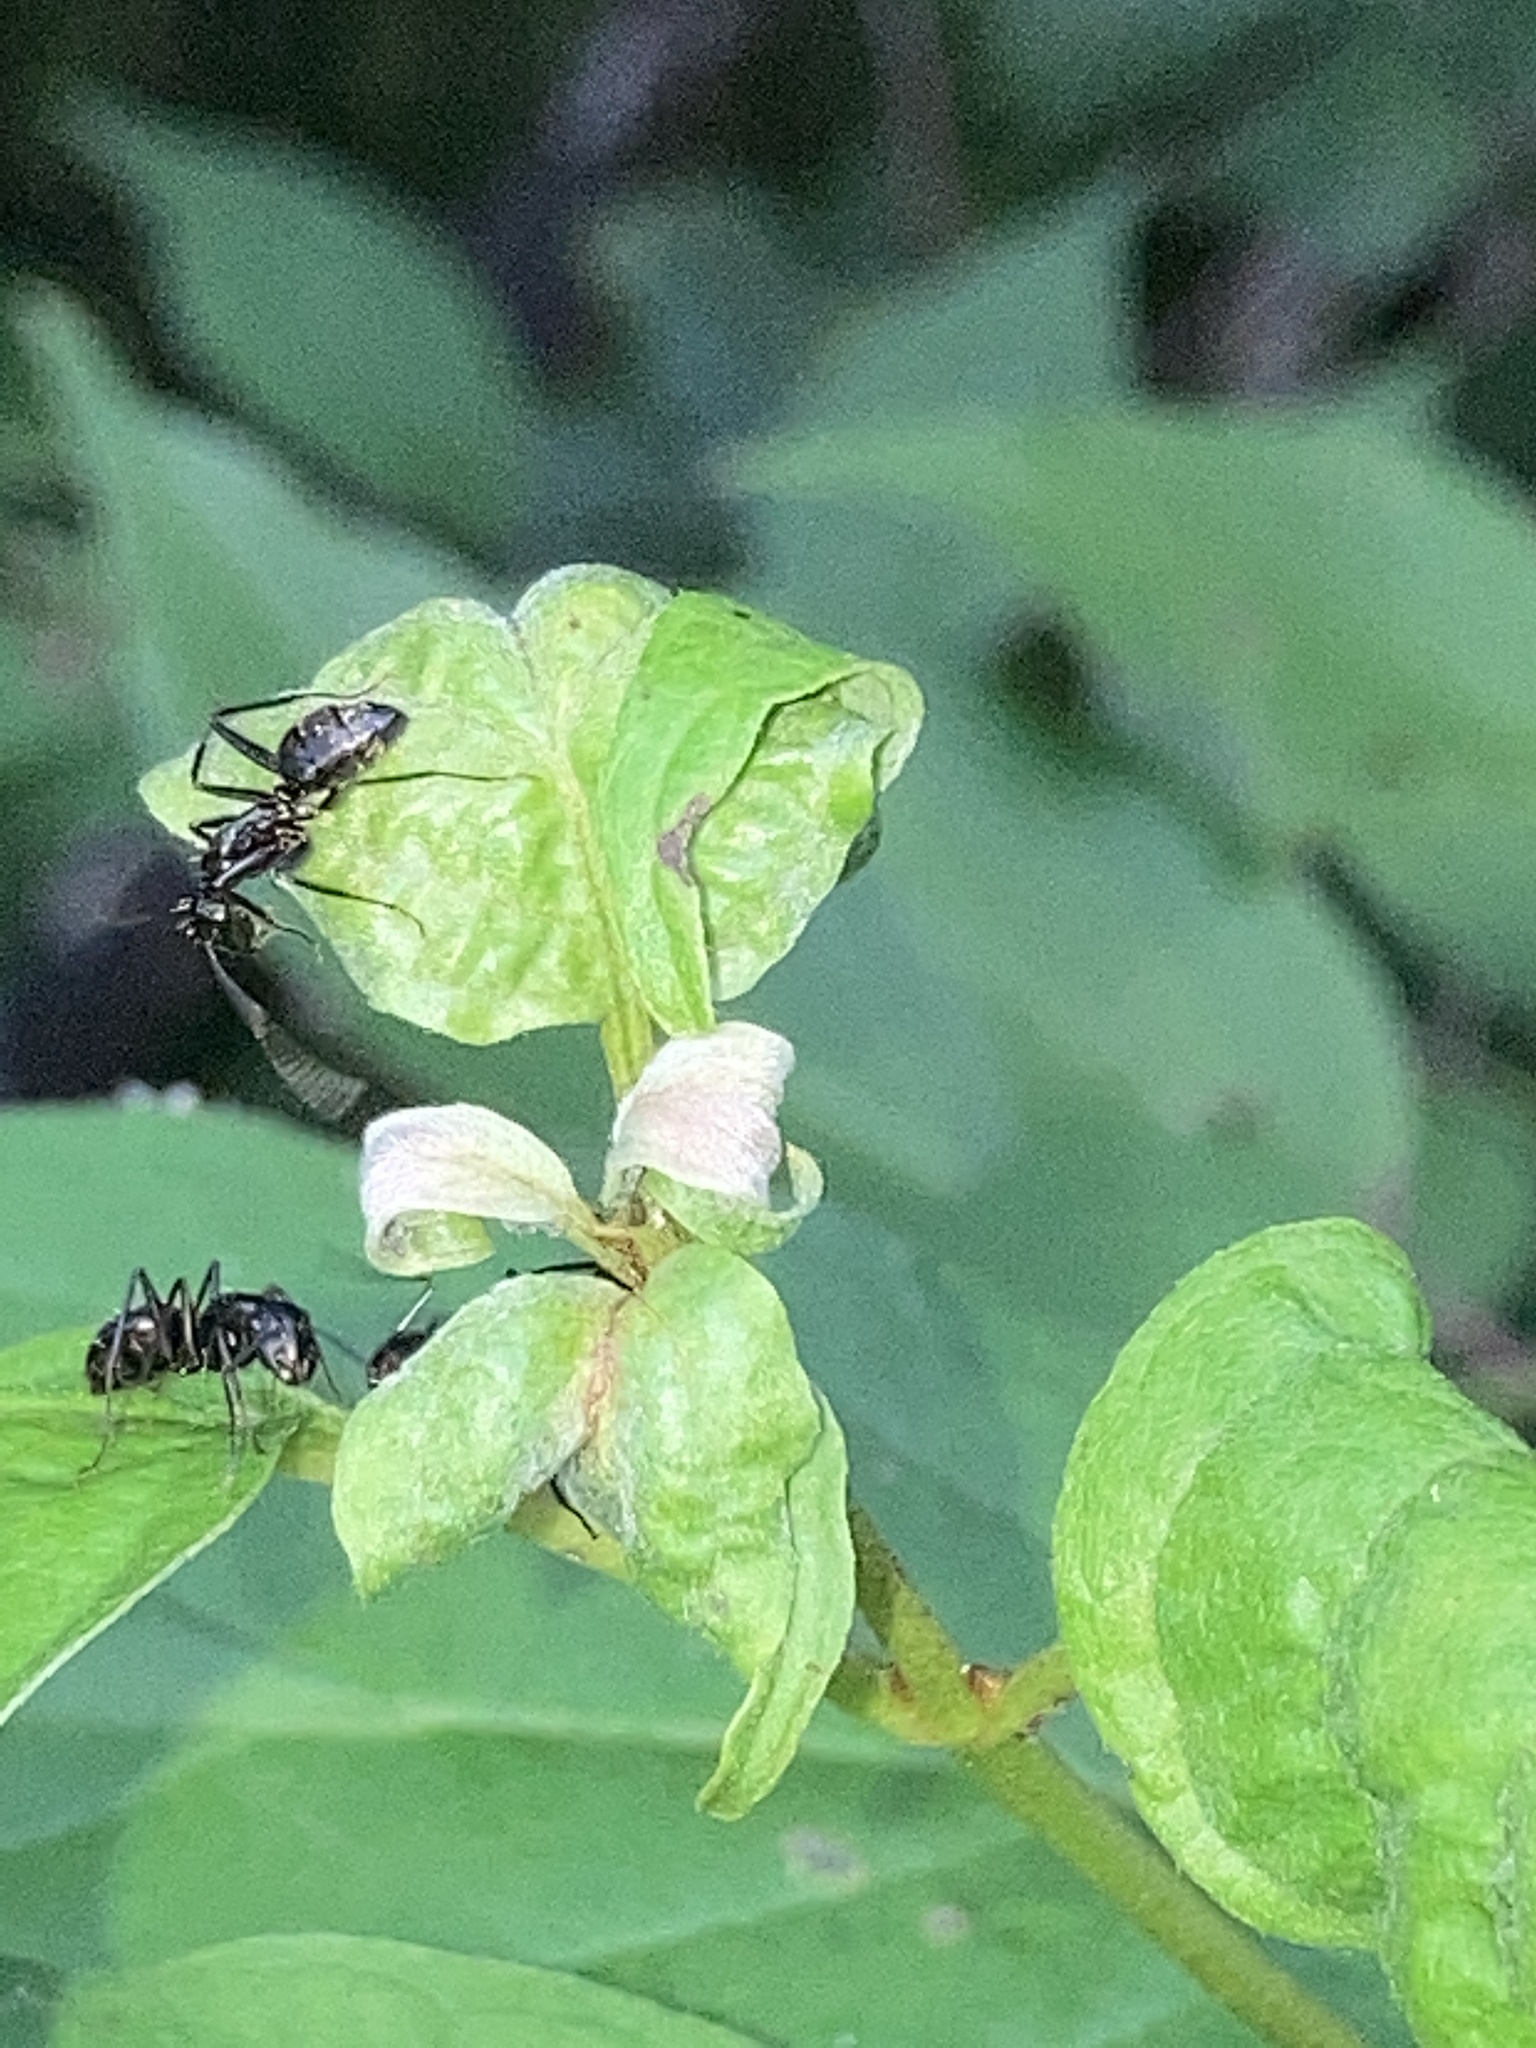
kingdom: Animalia
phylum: Arthropoda
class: Insecta
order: Hymenoptera
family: Formicidae
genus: Camponotus
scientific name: Camponotus pennsylvanicus
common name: Black carpenter ant
